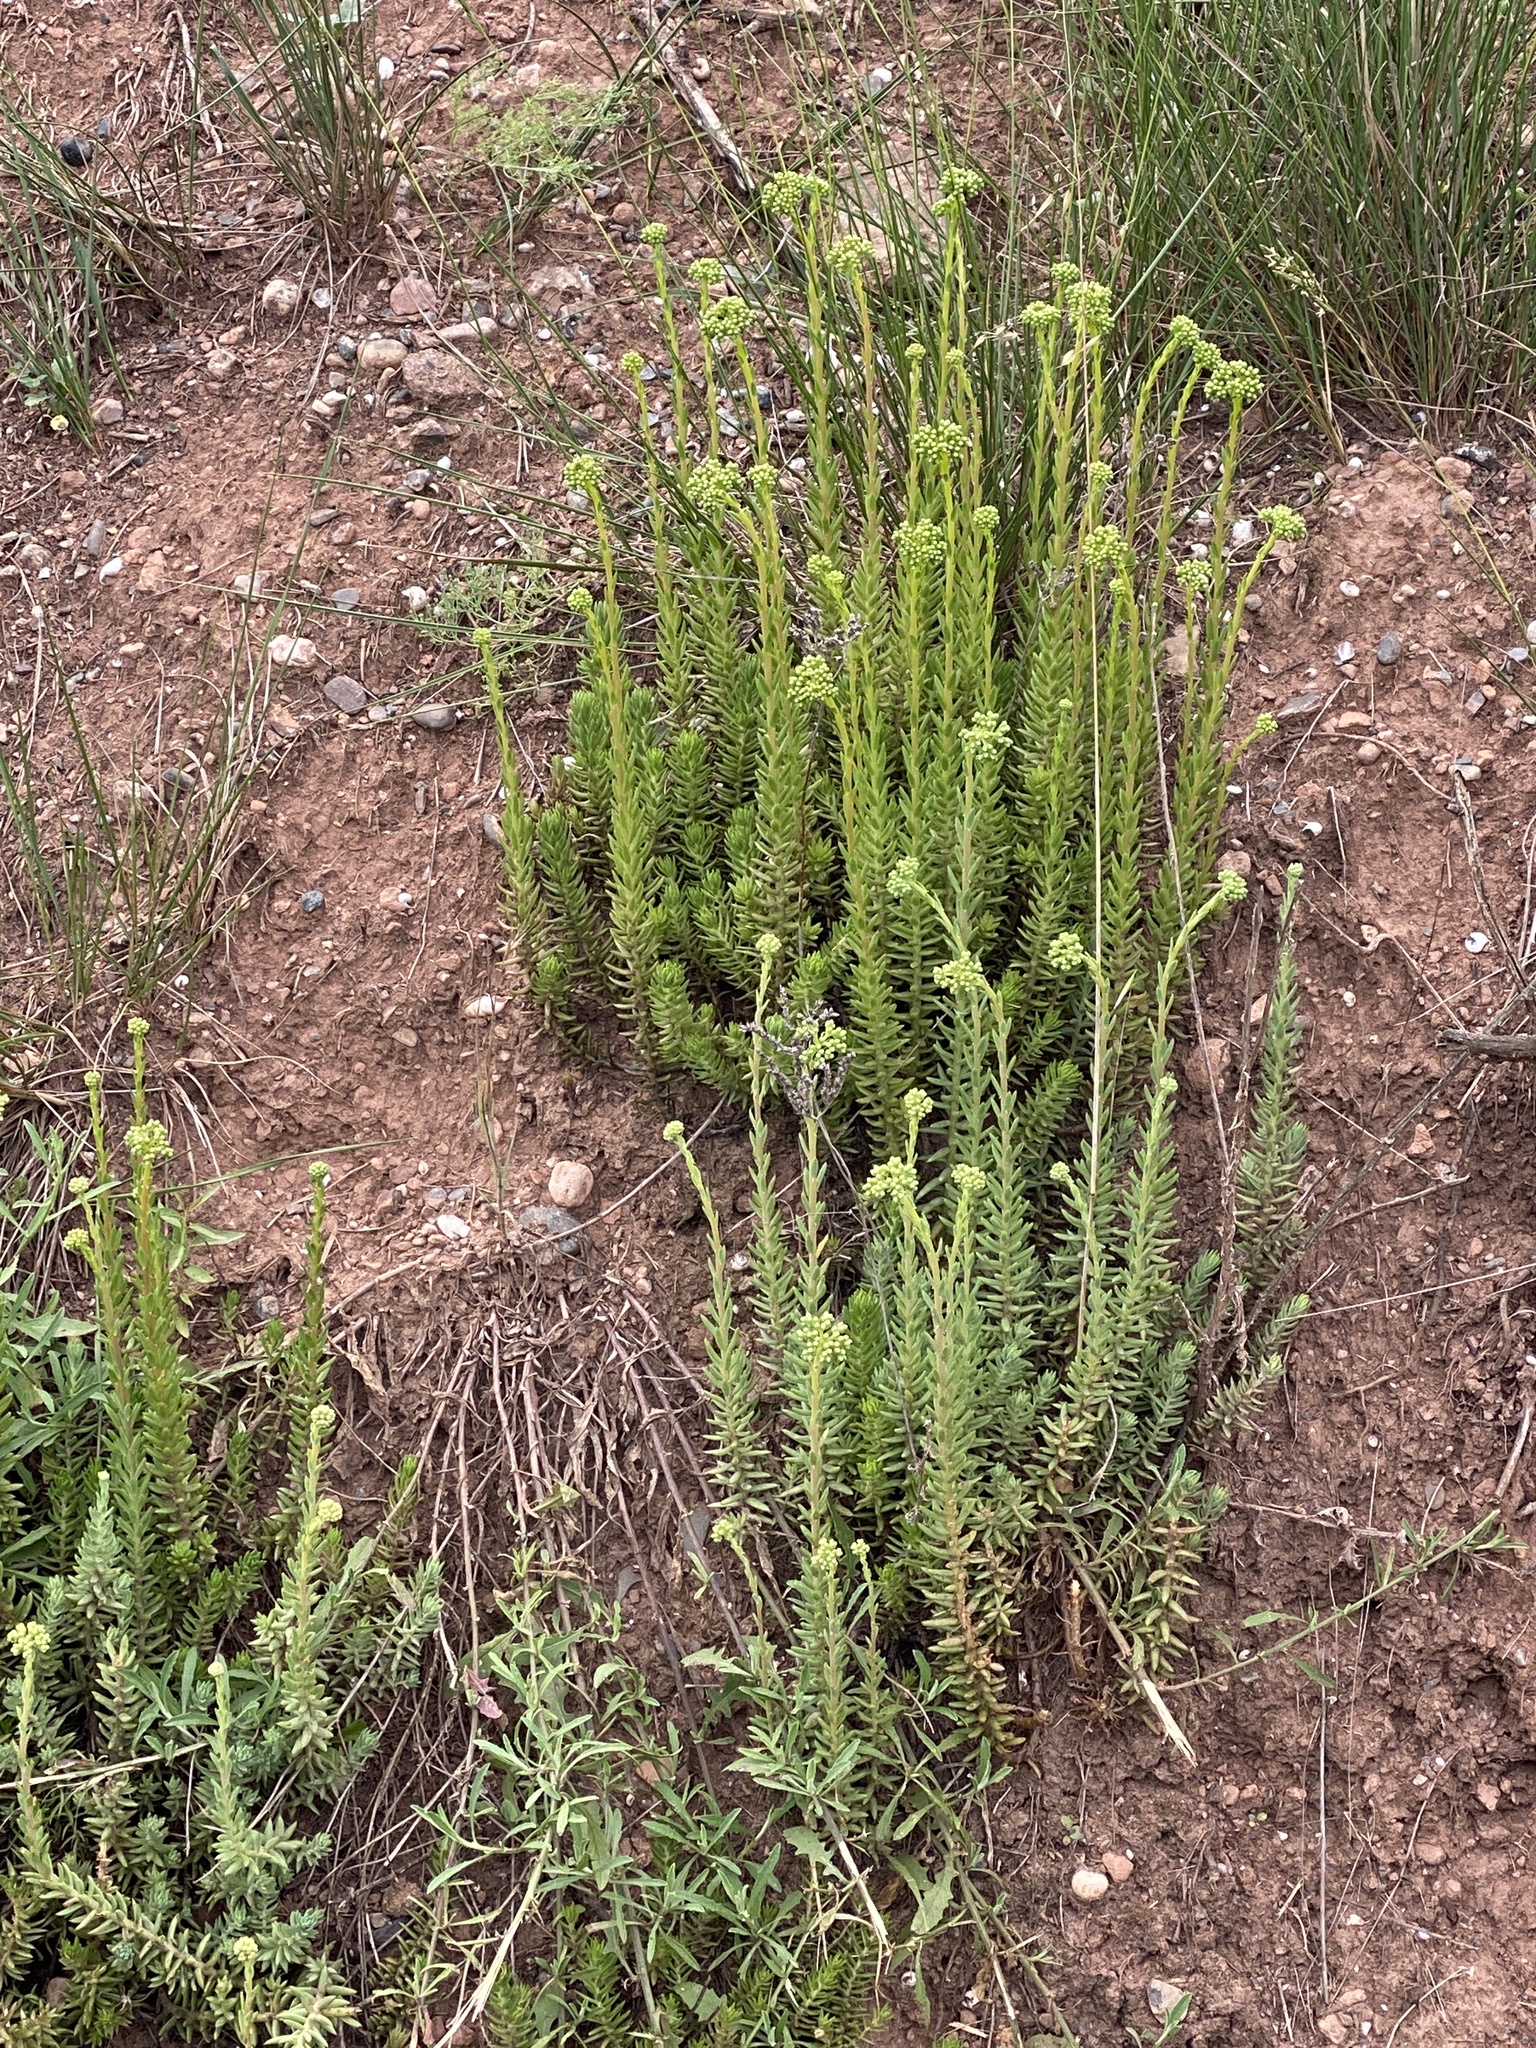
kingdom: Plantae
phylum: Tracheophyta
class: Magnoliopsida
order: Saxifragales
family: Crassulaceae
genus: Petrosedum
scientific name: Petrosedum sediforme
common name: Pale stonecrop
